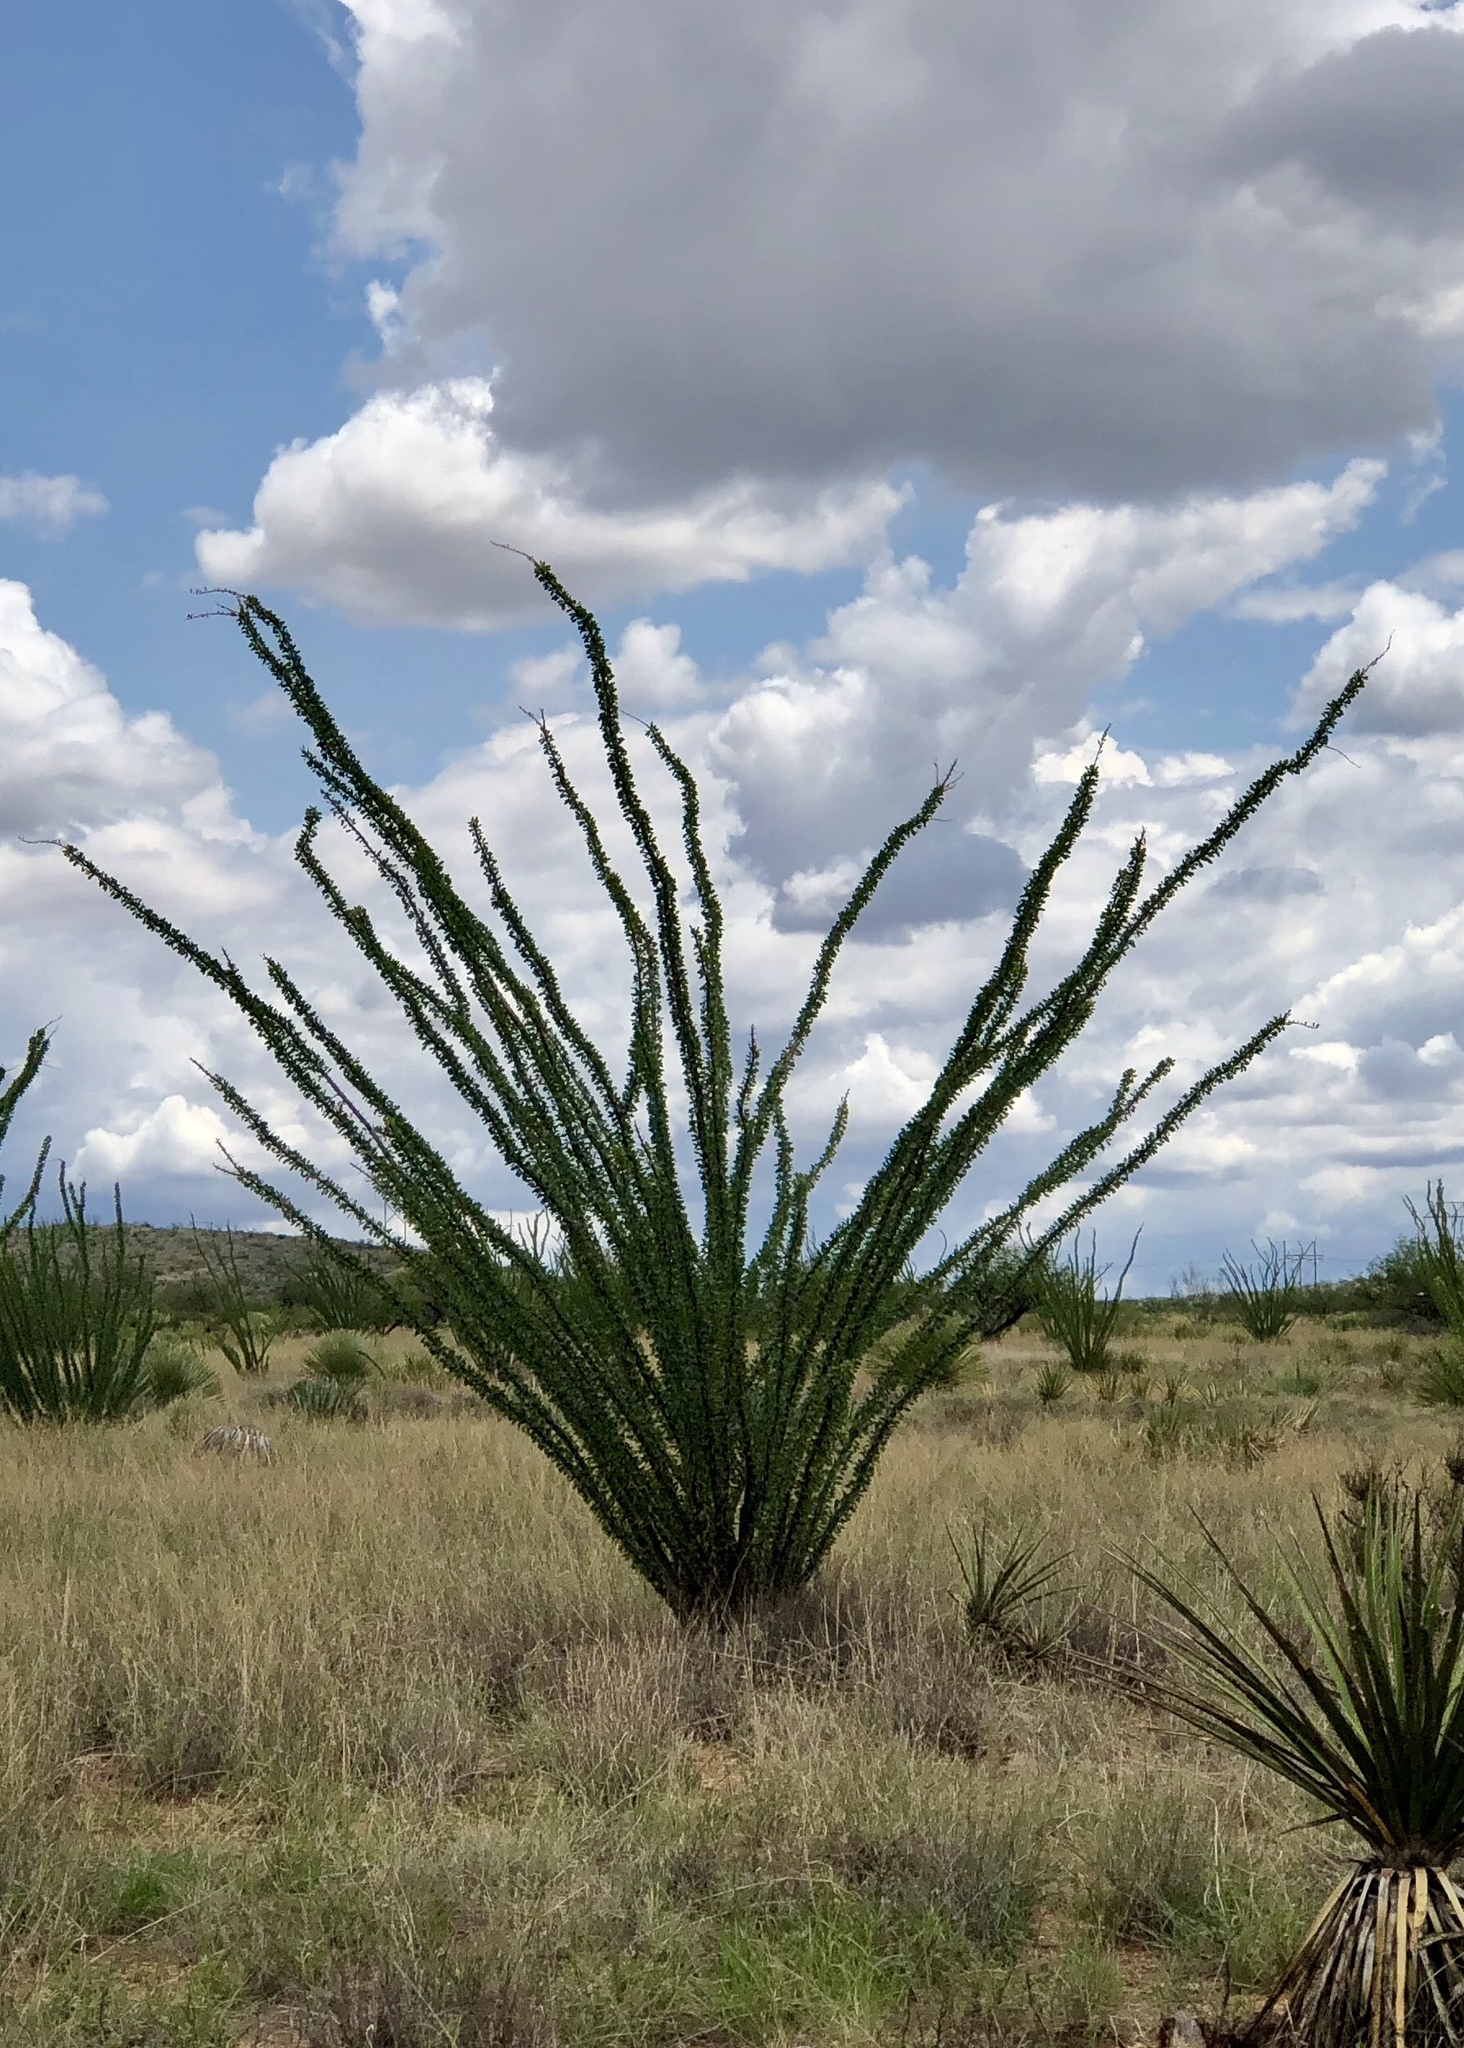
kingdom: Plantae
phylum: Tracheophyta
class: Magnoliopsida
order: Ericales
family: Fouquieriaceae
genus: Fouquieria
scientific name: Fouquieria splendens
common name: Vine-cactus
